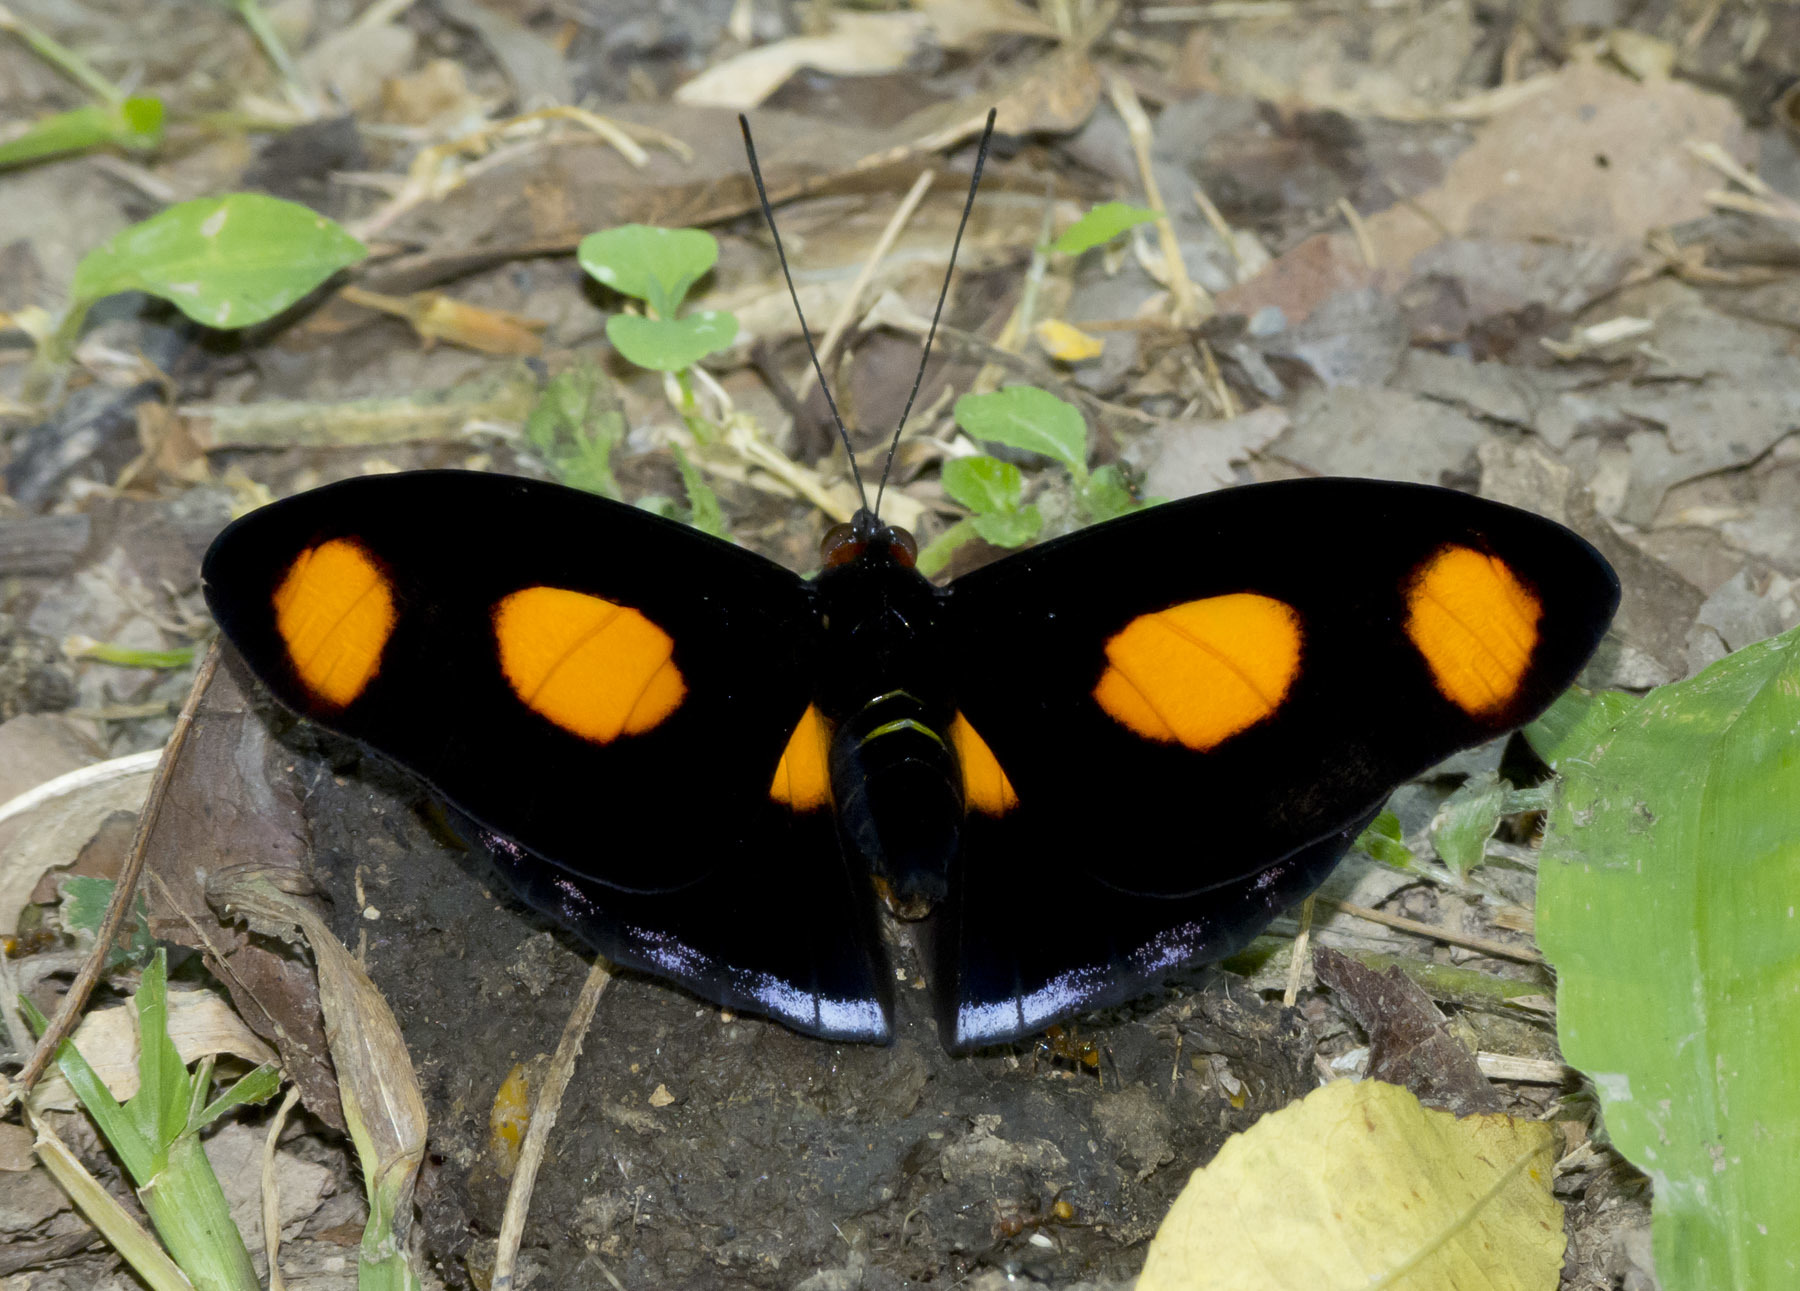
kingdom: Animalia
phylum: Arthropoda
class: Insecta
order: Lepidoptera
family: Nymphalidae
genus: Catonephele
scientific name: Catonephele numilia
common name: Blue-frosted banner
